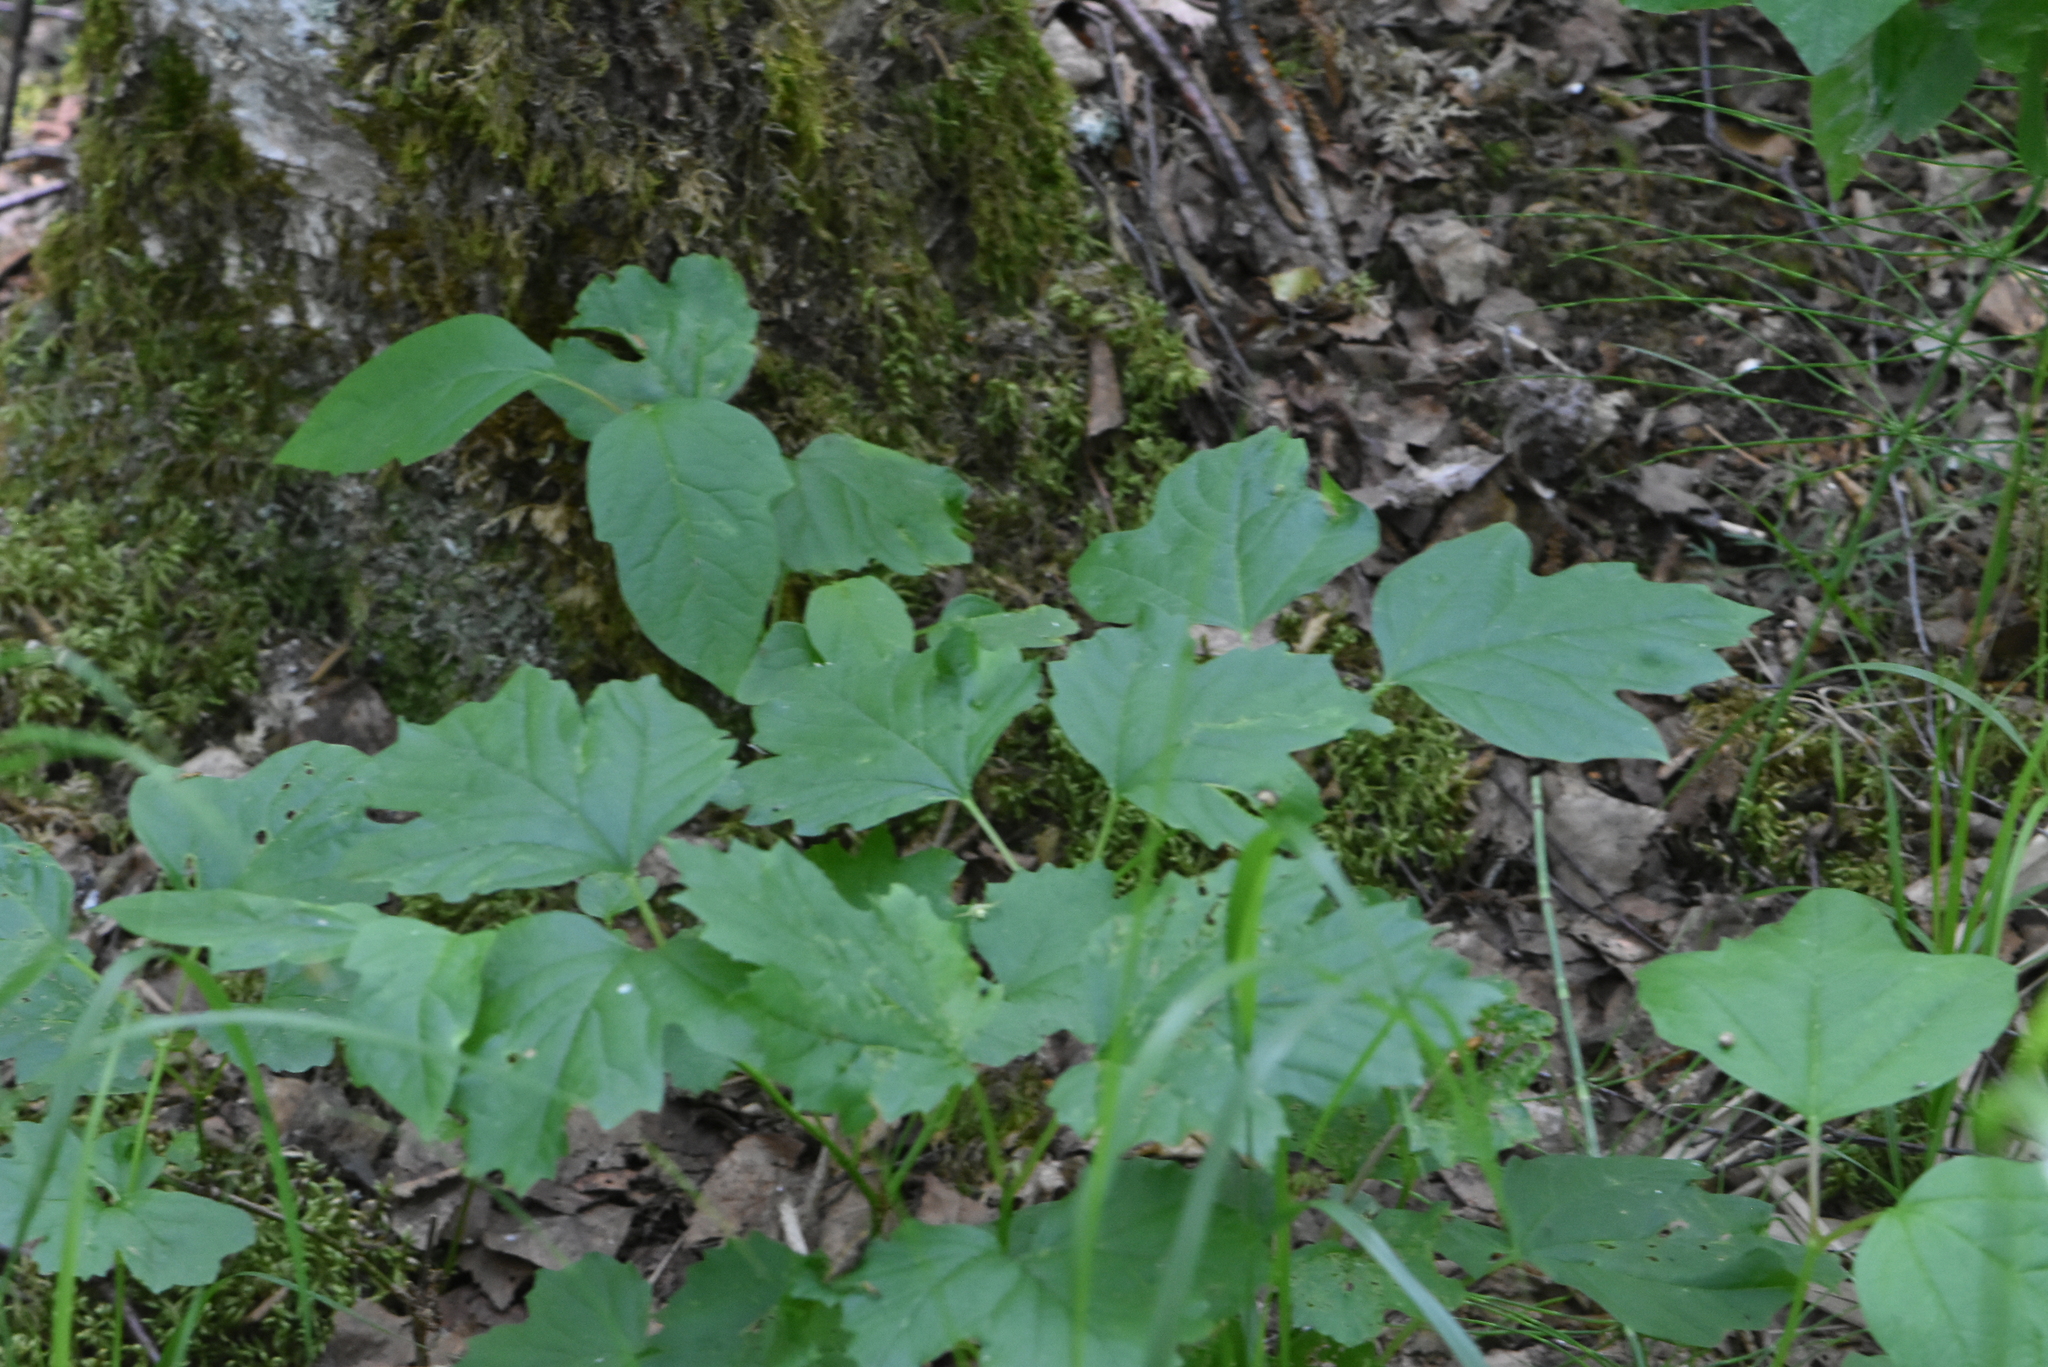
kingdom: Plantae
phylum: Tracheophyta
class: Magnoliopsida
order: Dipsacales
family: Viburnaceae
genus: Viburnum
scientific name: Viburnum opulus
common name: Guelder-rose
